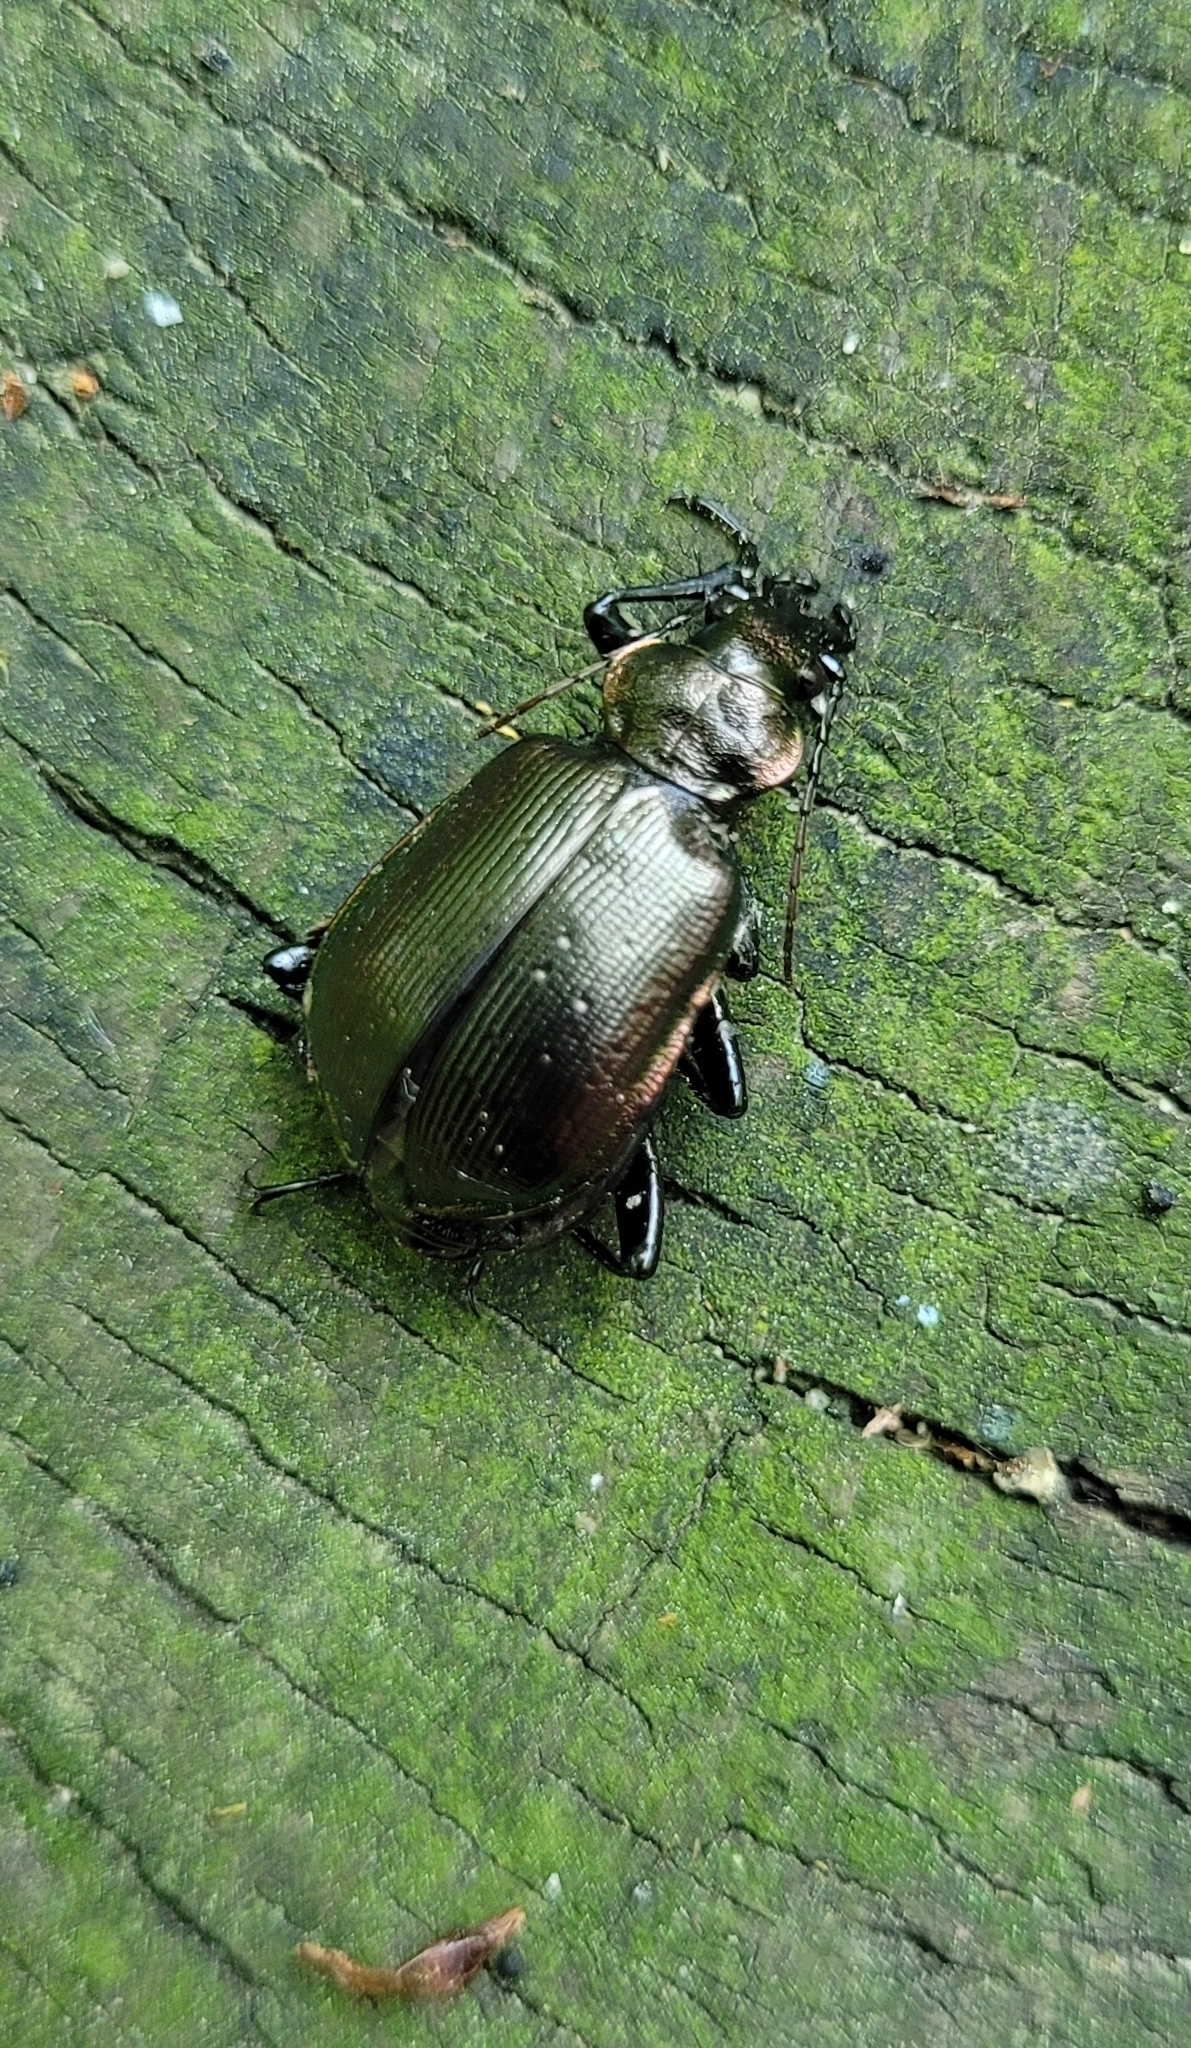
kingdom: Animalia
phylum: Arthropoda
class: Insecta
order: Coleoptera
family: Carabidae
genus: Calosoma
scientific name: Calosoma inquisitor
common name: Caterpillar-hunter
